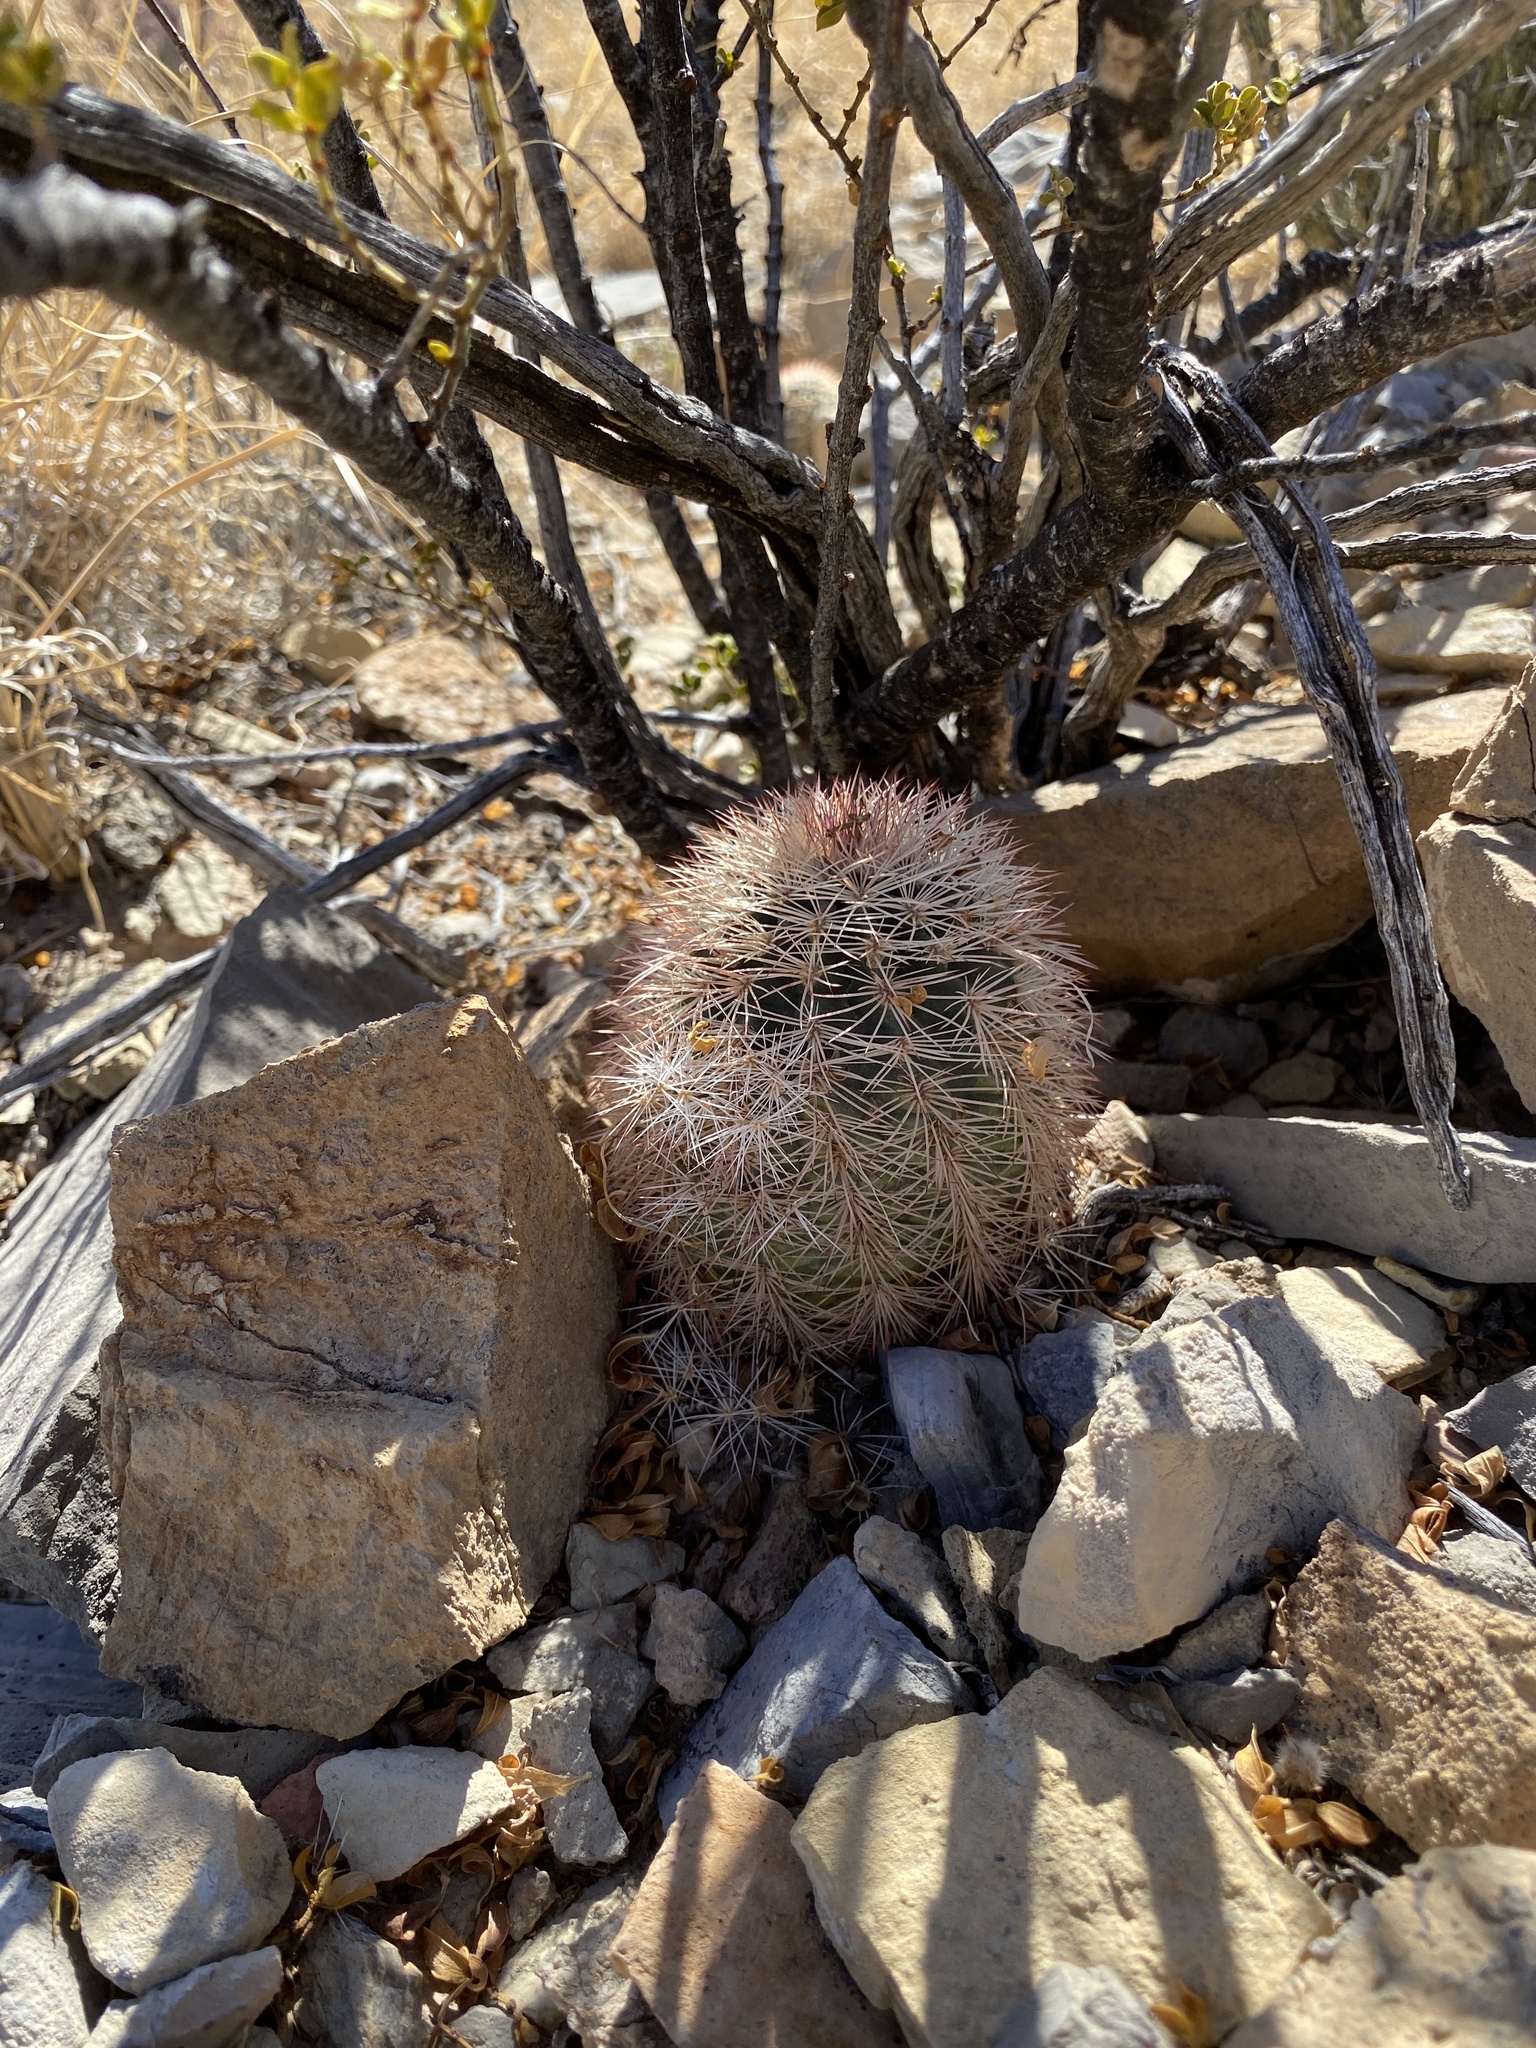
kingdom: Plantae
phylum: Tracheophyta
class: Magnoliopsida
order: Caryophyllales
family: Cactaceae
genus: Echinocereus
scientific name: Echinocereus dasyacanthus
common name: Spiny hedgehog cactus
